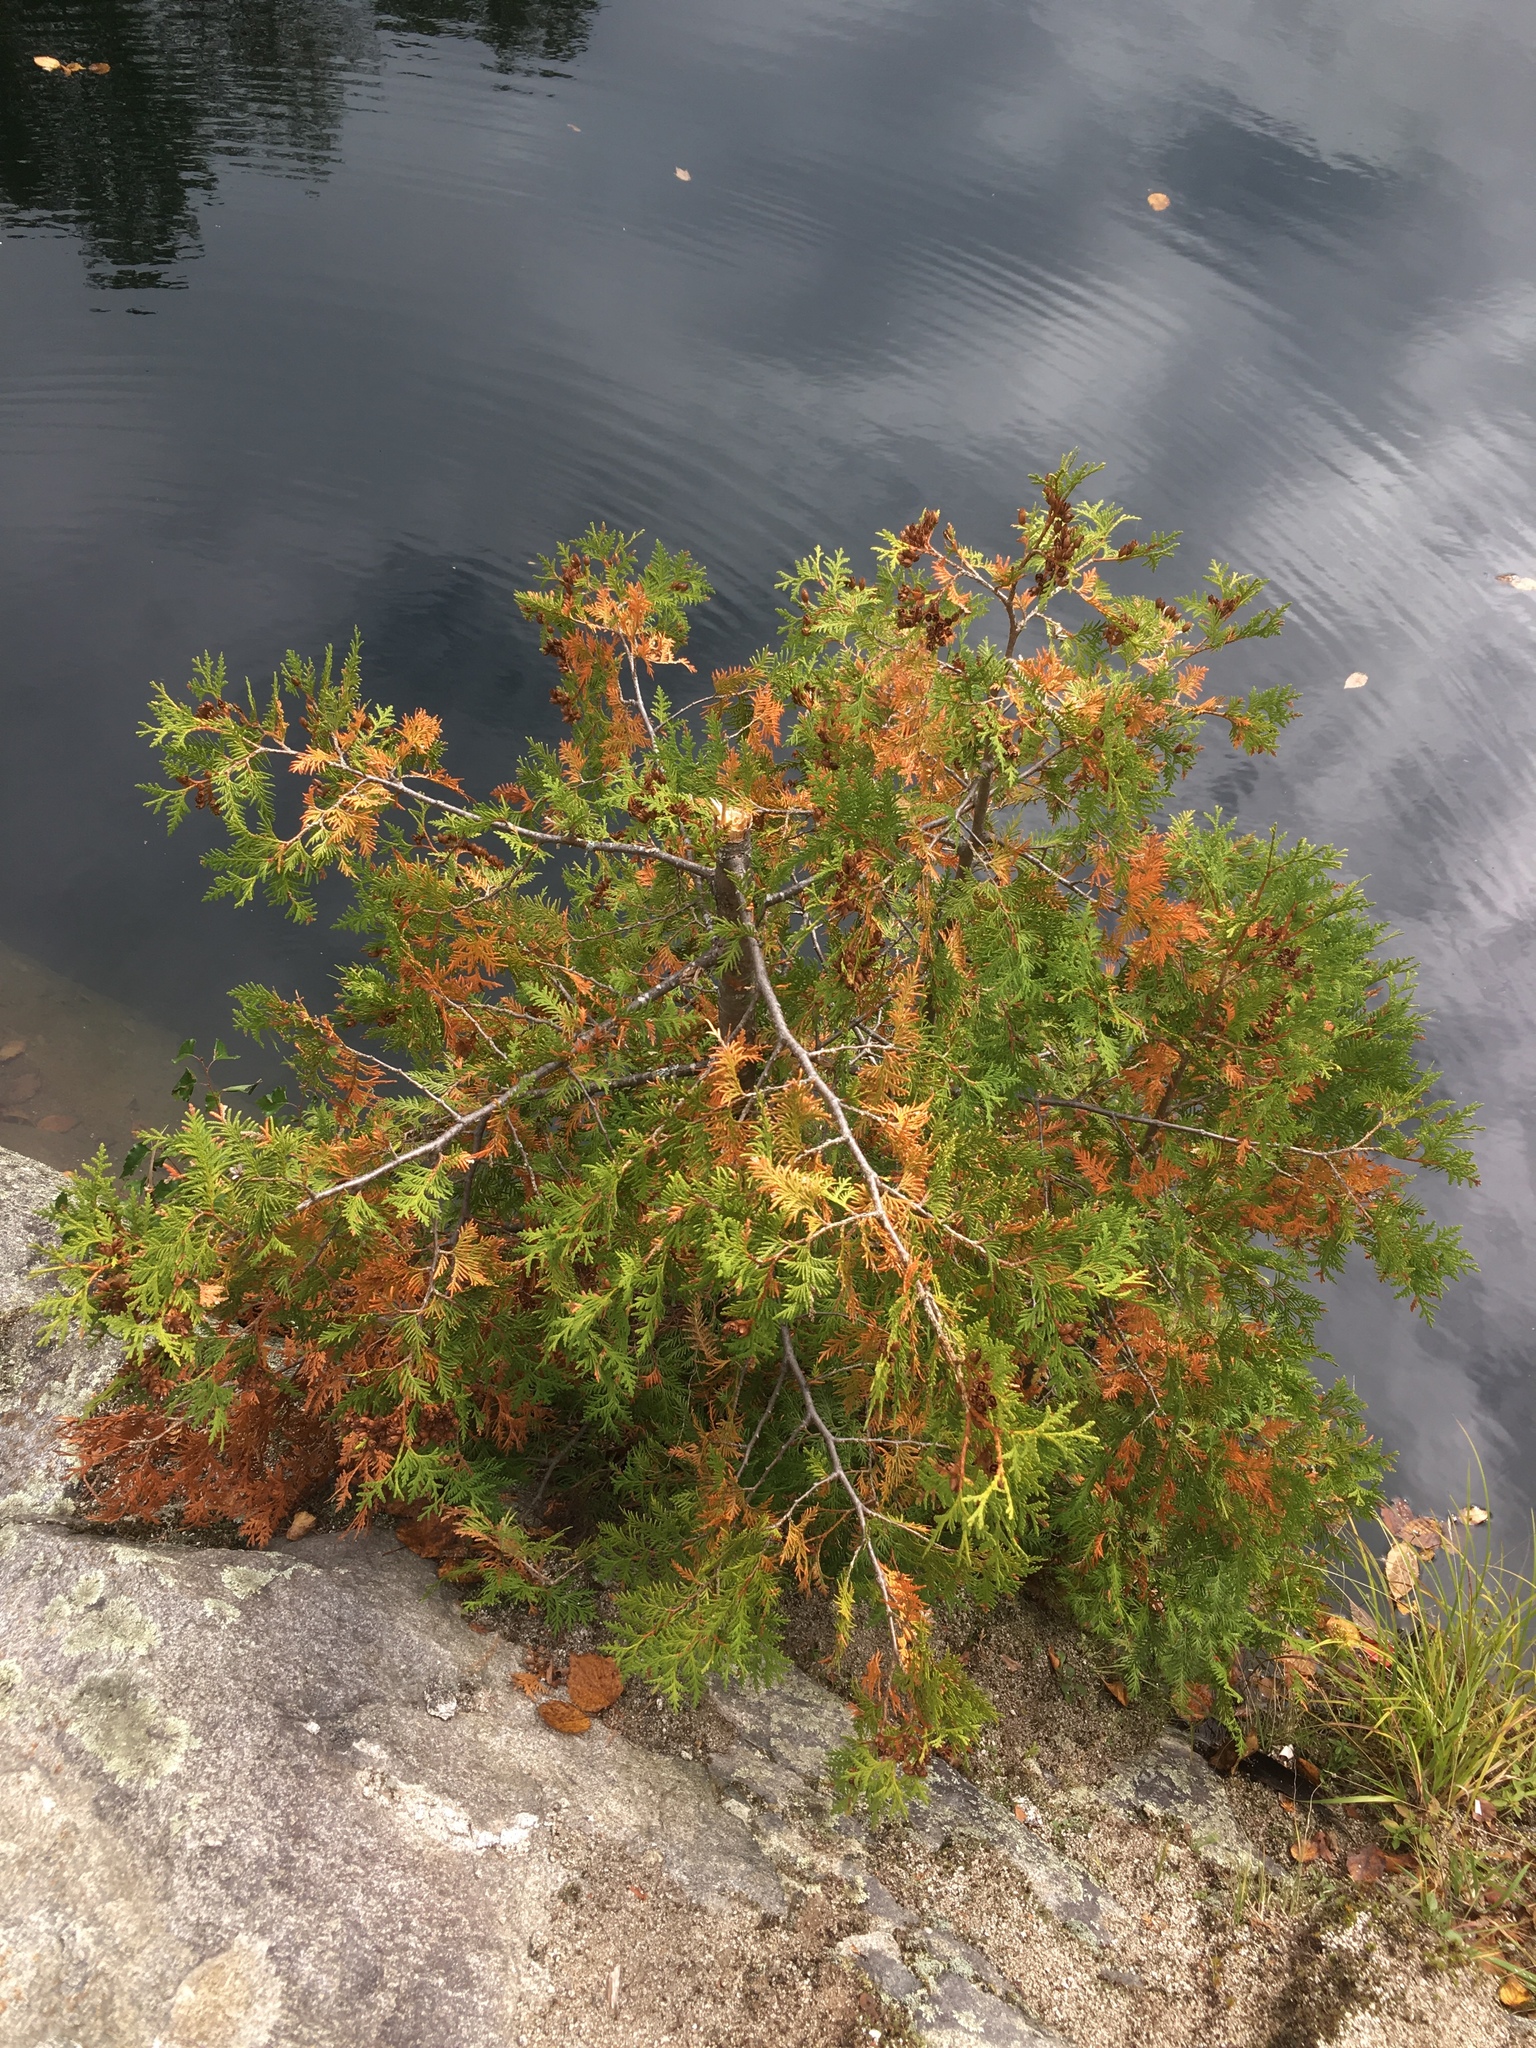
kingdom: Plantae
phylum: Tracheophyta
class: Pinopsida
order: Pinales
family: Cupressaceae
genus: Thuja
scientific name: Thuja occidentalis
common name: Northern white-cedar
